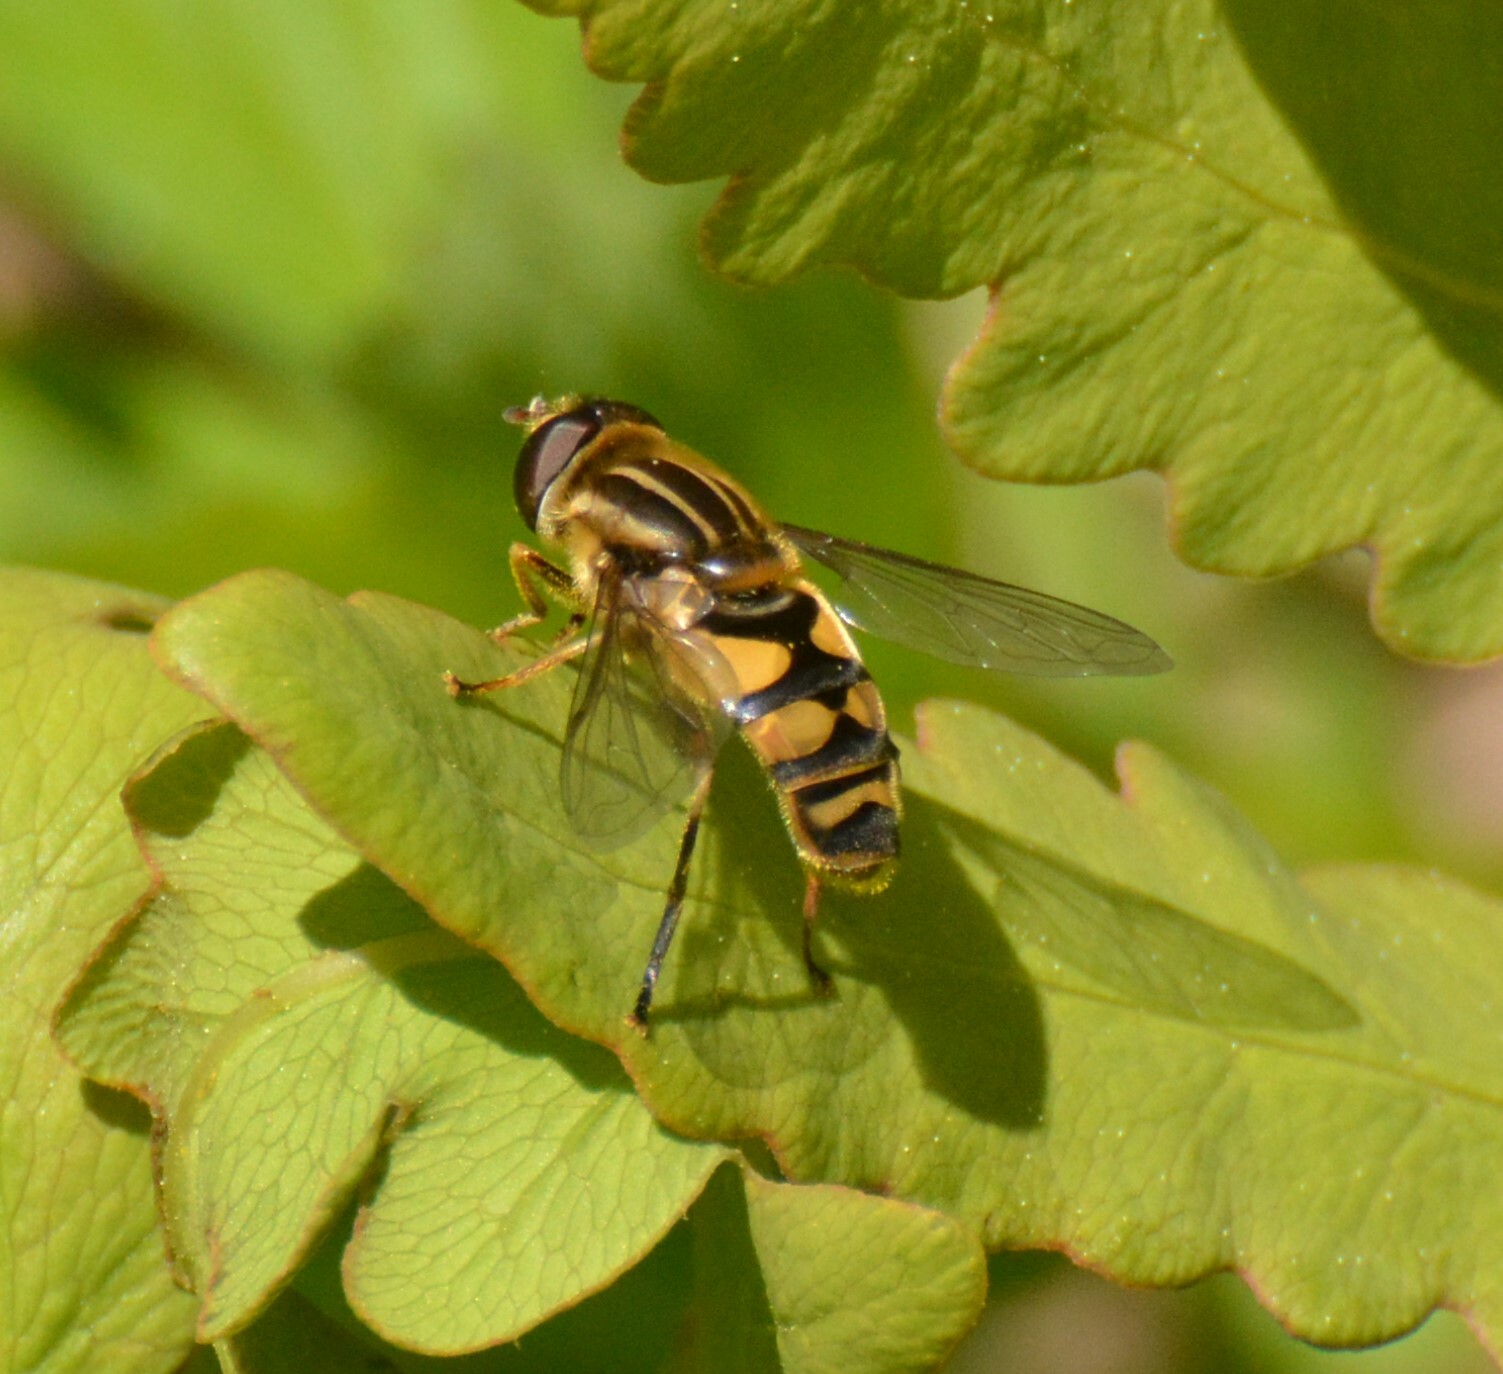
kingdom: Animalia
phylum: Arthropoda
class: Insecta
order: Diptera
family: Syrphidae
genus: Helophilus
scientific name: Helophilus fasciatus
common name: Narrow-headed marsh fly
